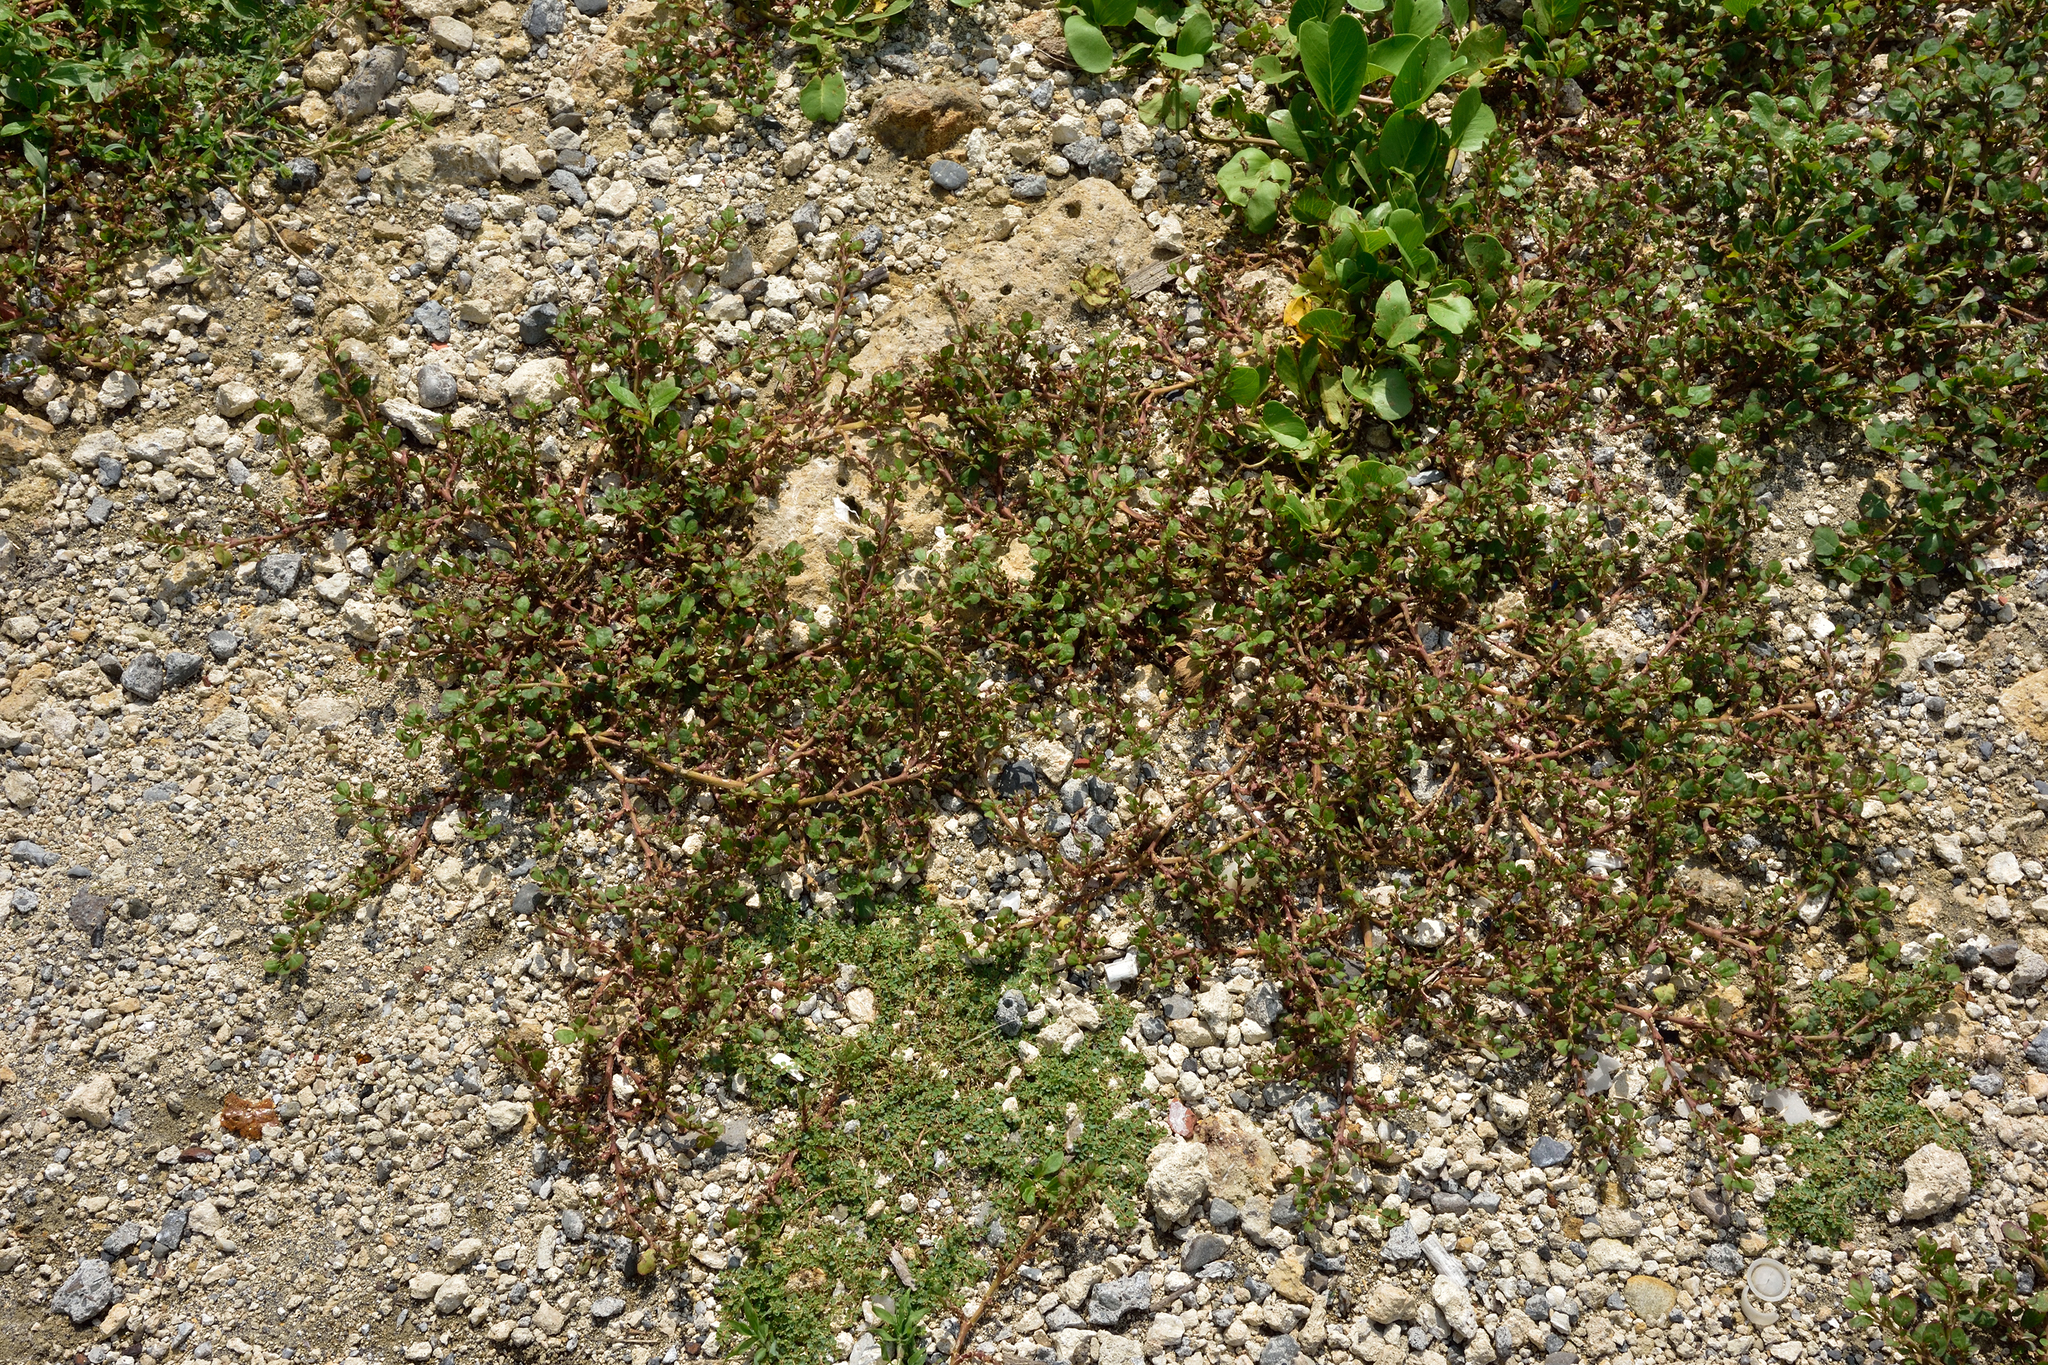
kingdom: Plantae
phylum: Tracheophyta
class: Magnoliopsida
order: Caryophyllales
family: Aizoaceae
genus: Trianthema
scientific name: Trianthema portulacastrum
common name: Desert horsepurslane
